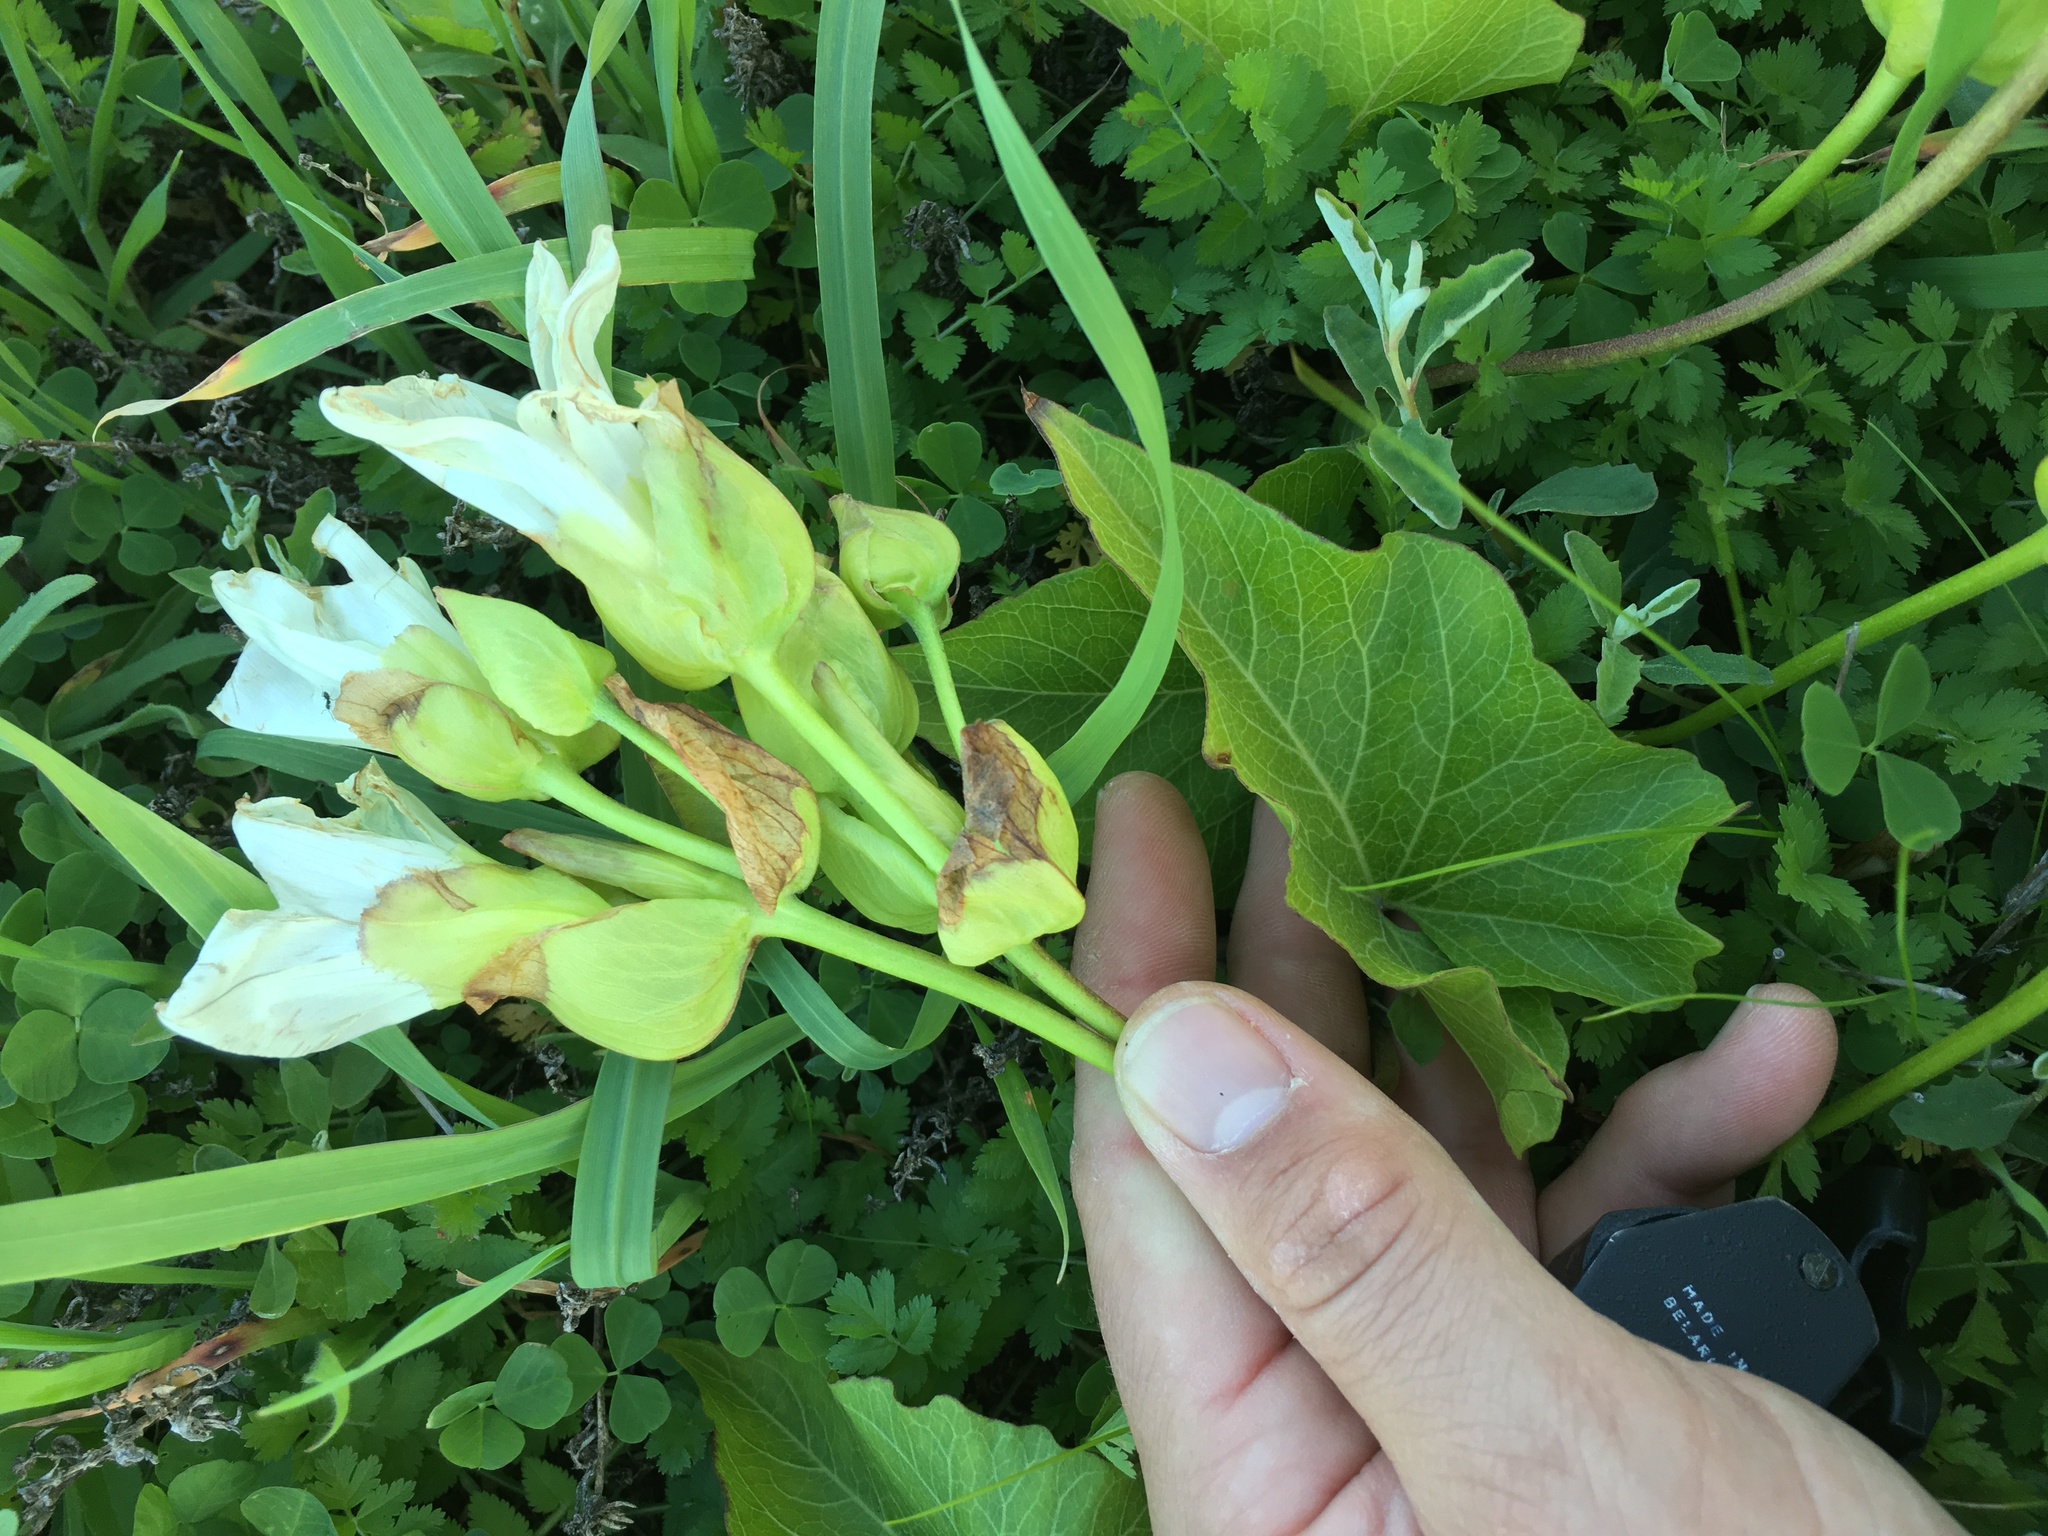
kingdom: Plantae
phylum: Tracheophyta
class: Magnoliopsida
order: Solanales
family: Convolvulaceae
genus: Calystegia
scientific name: Calystegia macrostegia
